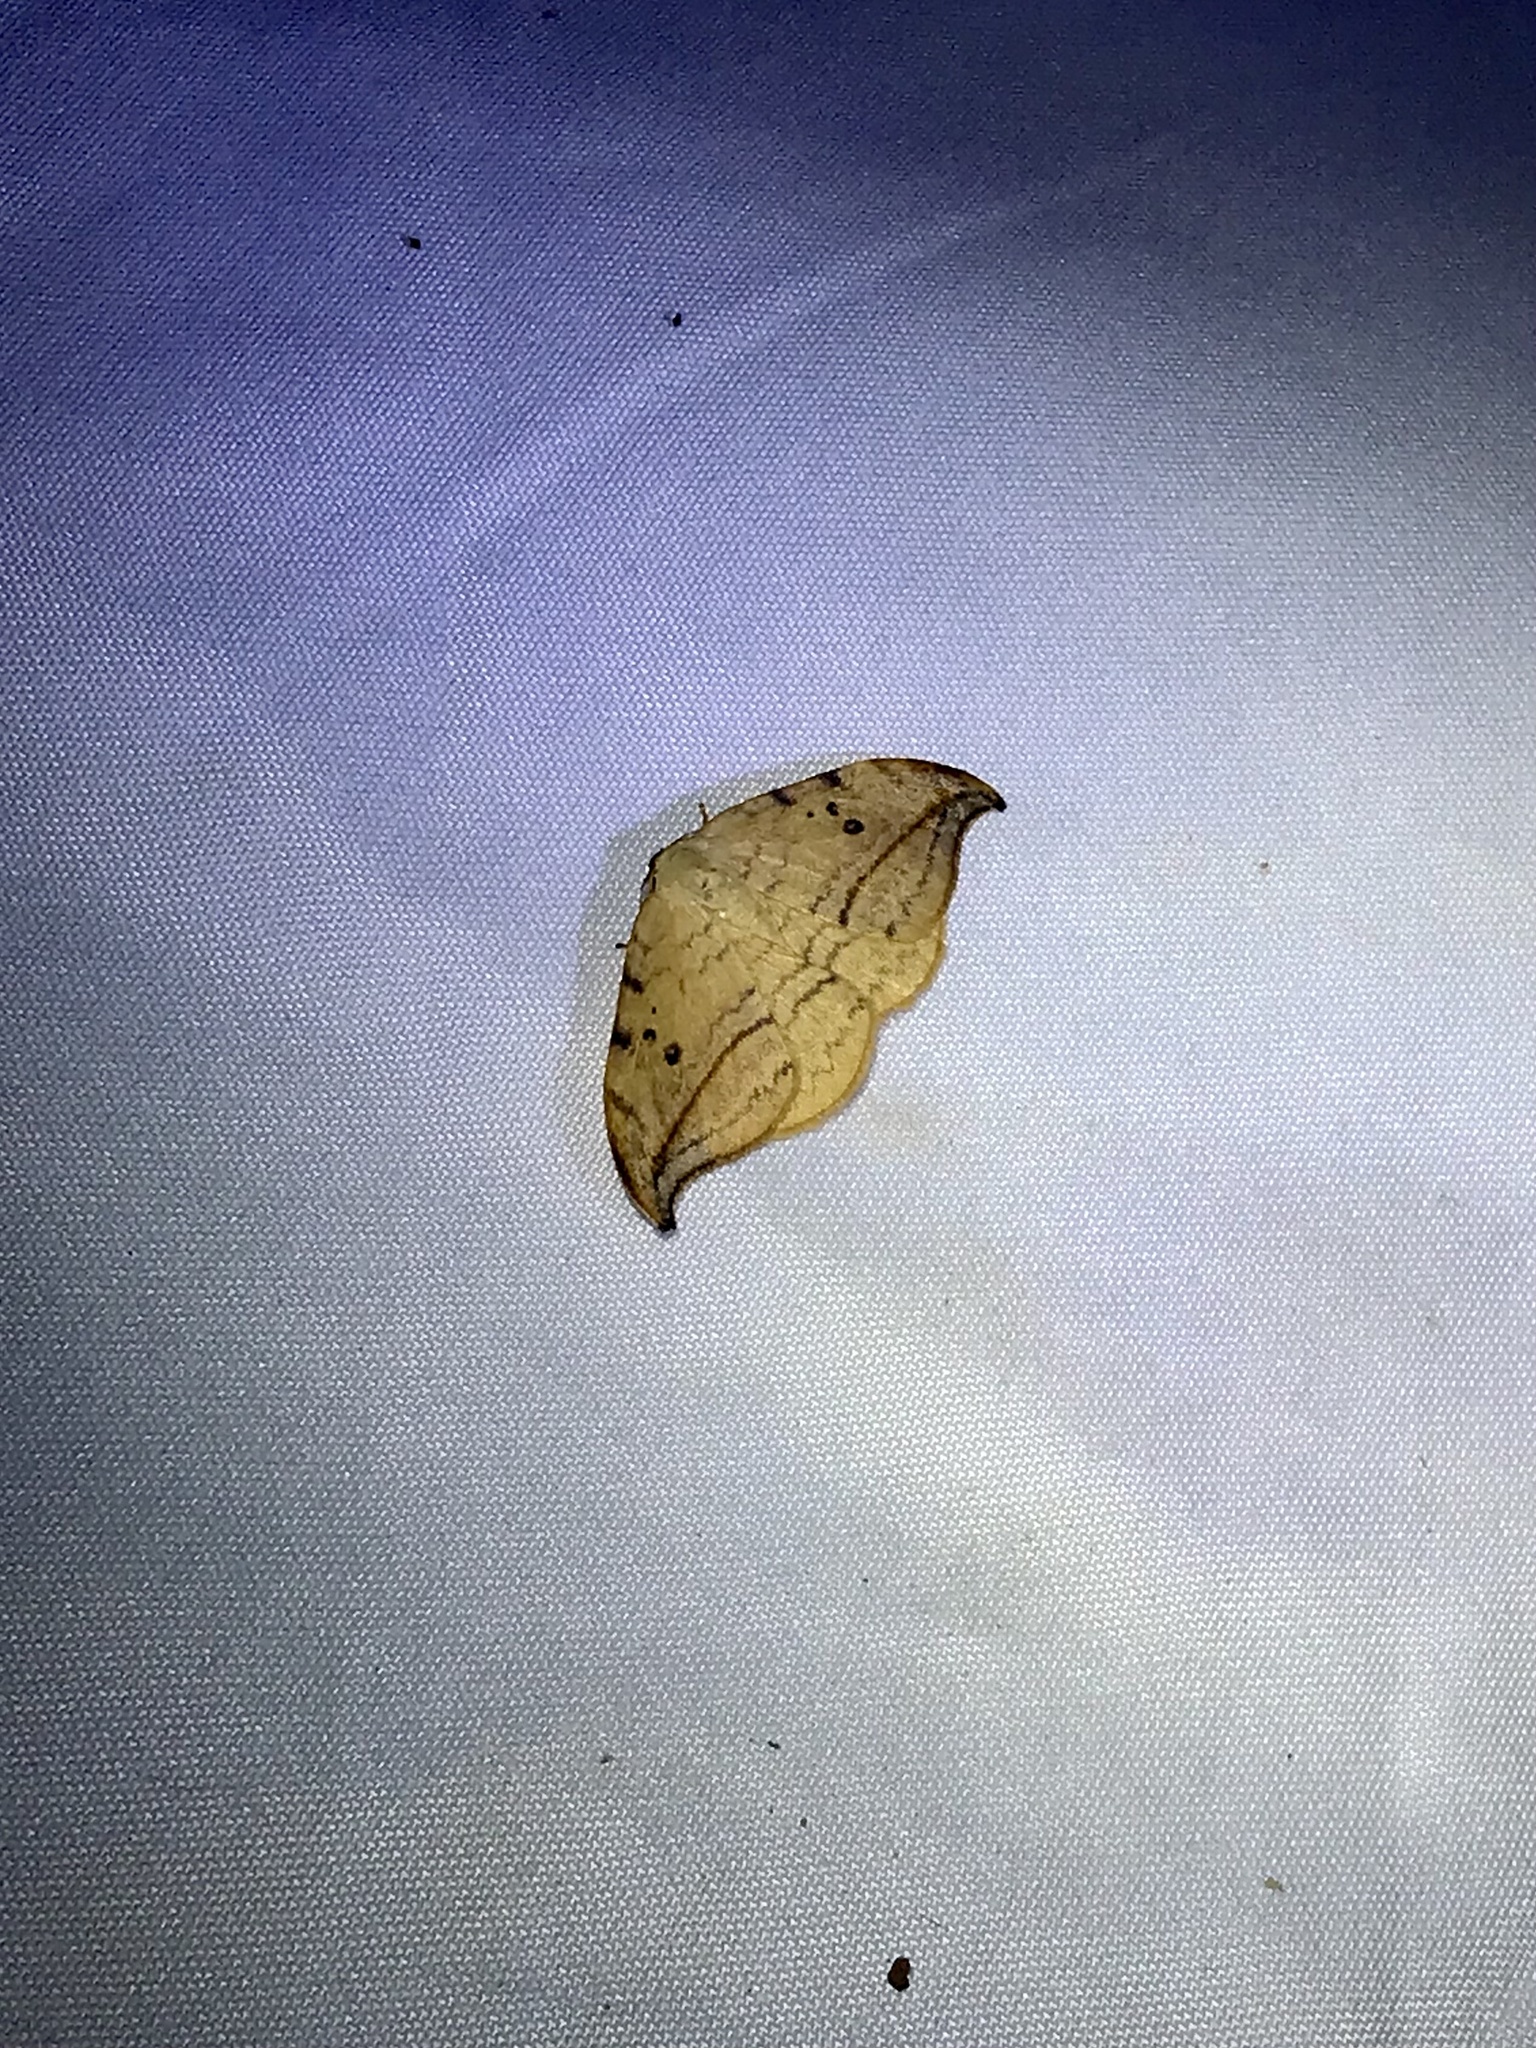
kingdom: Animalia
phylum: Arthropoda
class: Insecta
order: Lepidoptera
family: Drepanidae
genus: Drepana
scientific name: Drepana arcuata
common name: Arched hooktip moth
